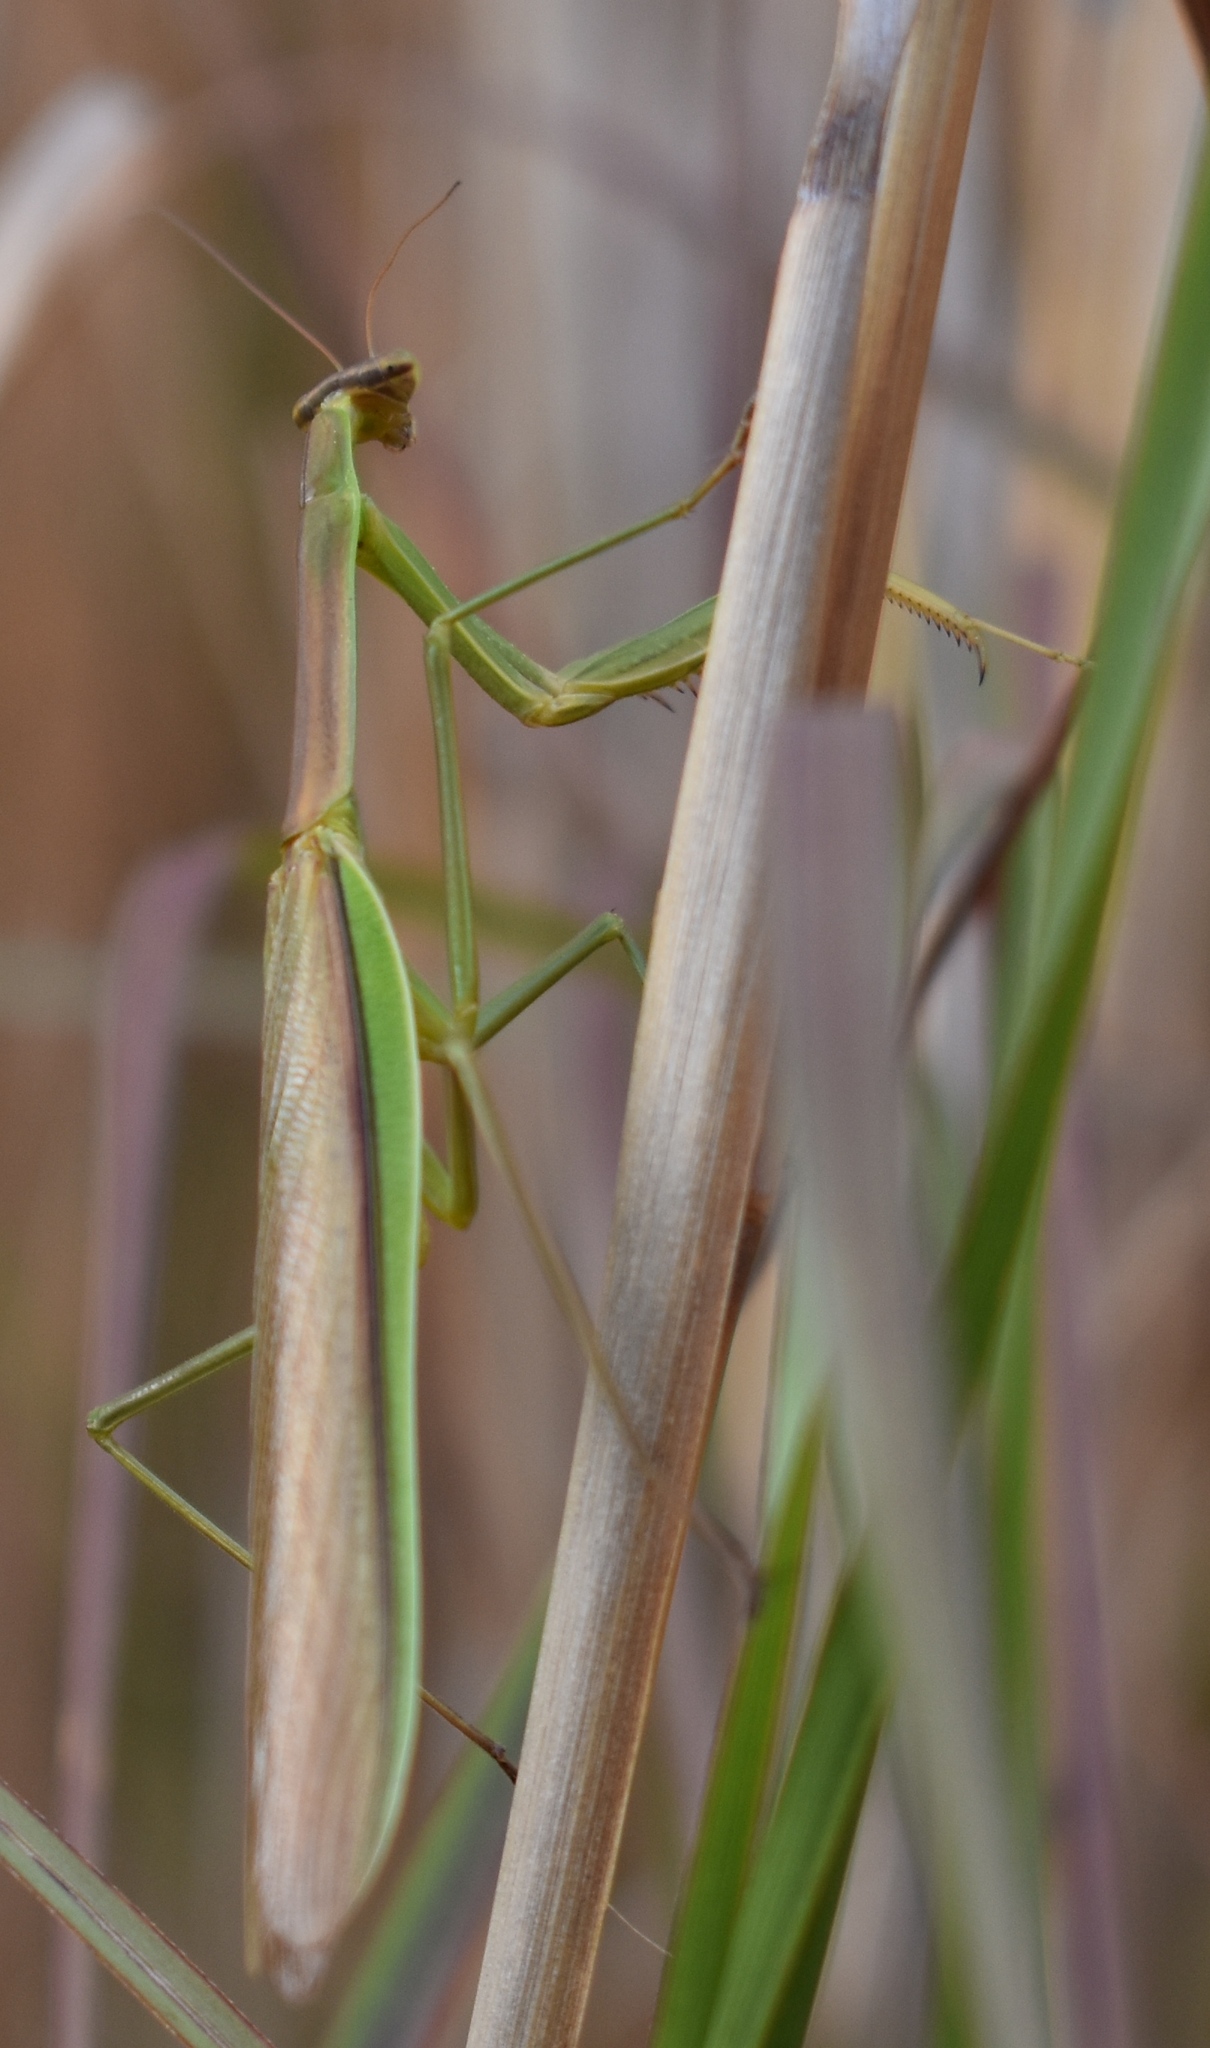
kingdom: Animalia
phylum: Arthropoda
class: Insecta
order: Mantodea
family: Mantidae
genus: Tenodera
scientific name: Tenodera angustipennis
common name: Asian mantis
